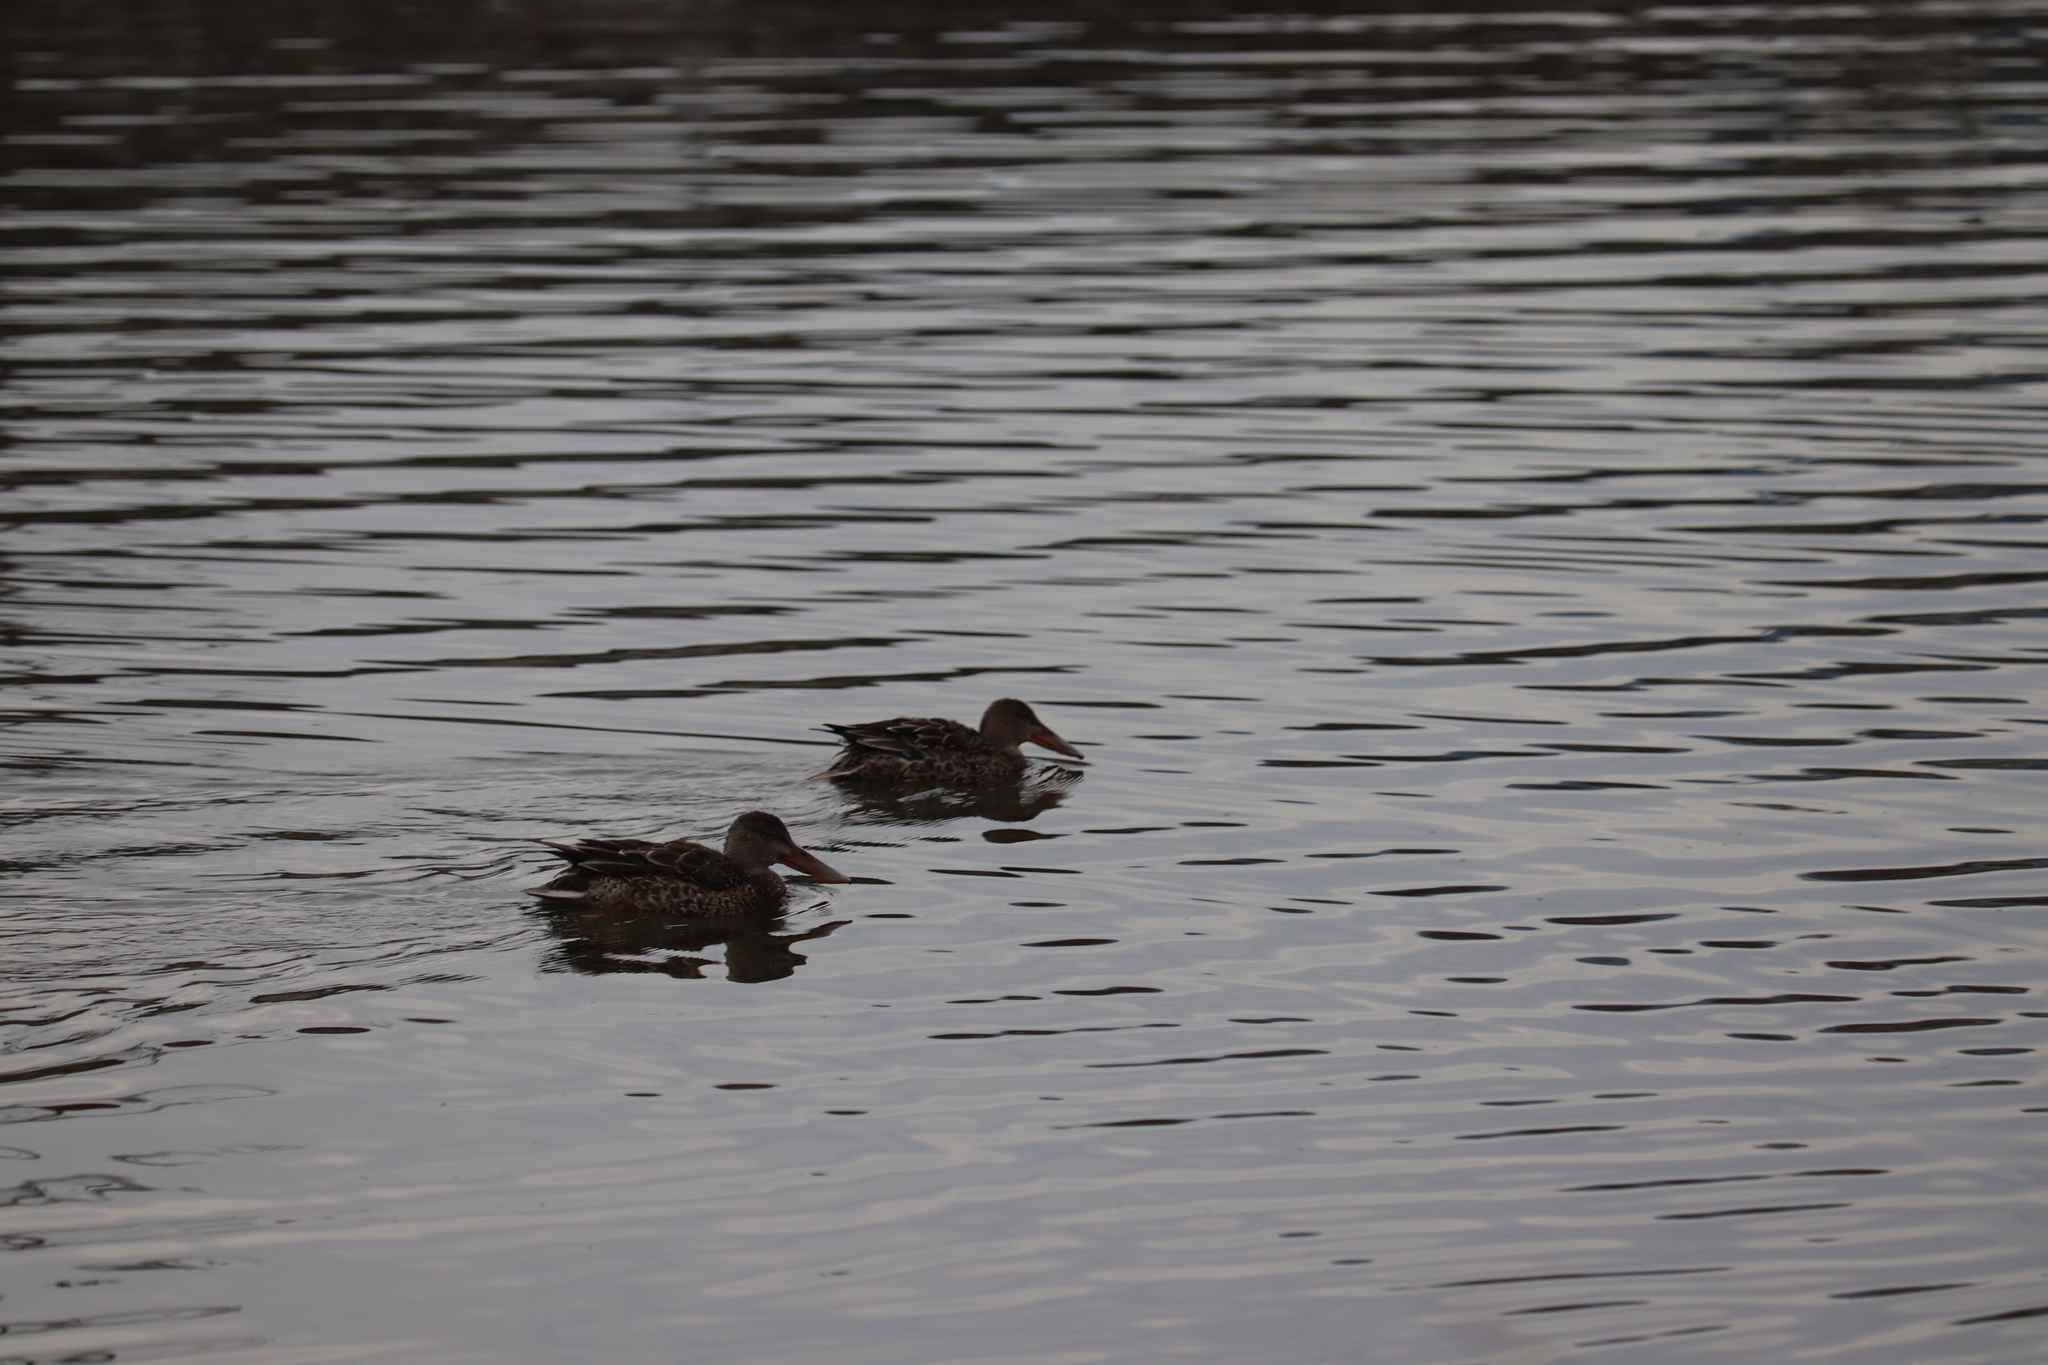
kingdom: Animalia
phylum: Chordata
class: Aves
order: Anseriformes
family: Anatidae
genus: Spatula
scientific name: Spatula clypeata
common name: Northern shoveler
